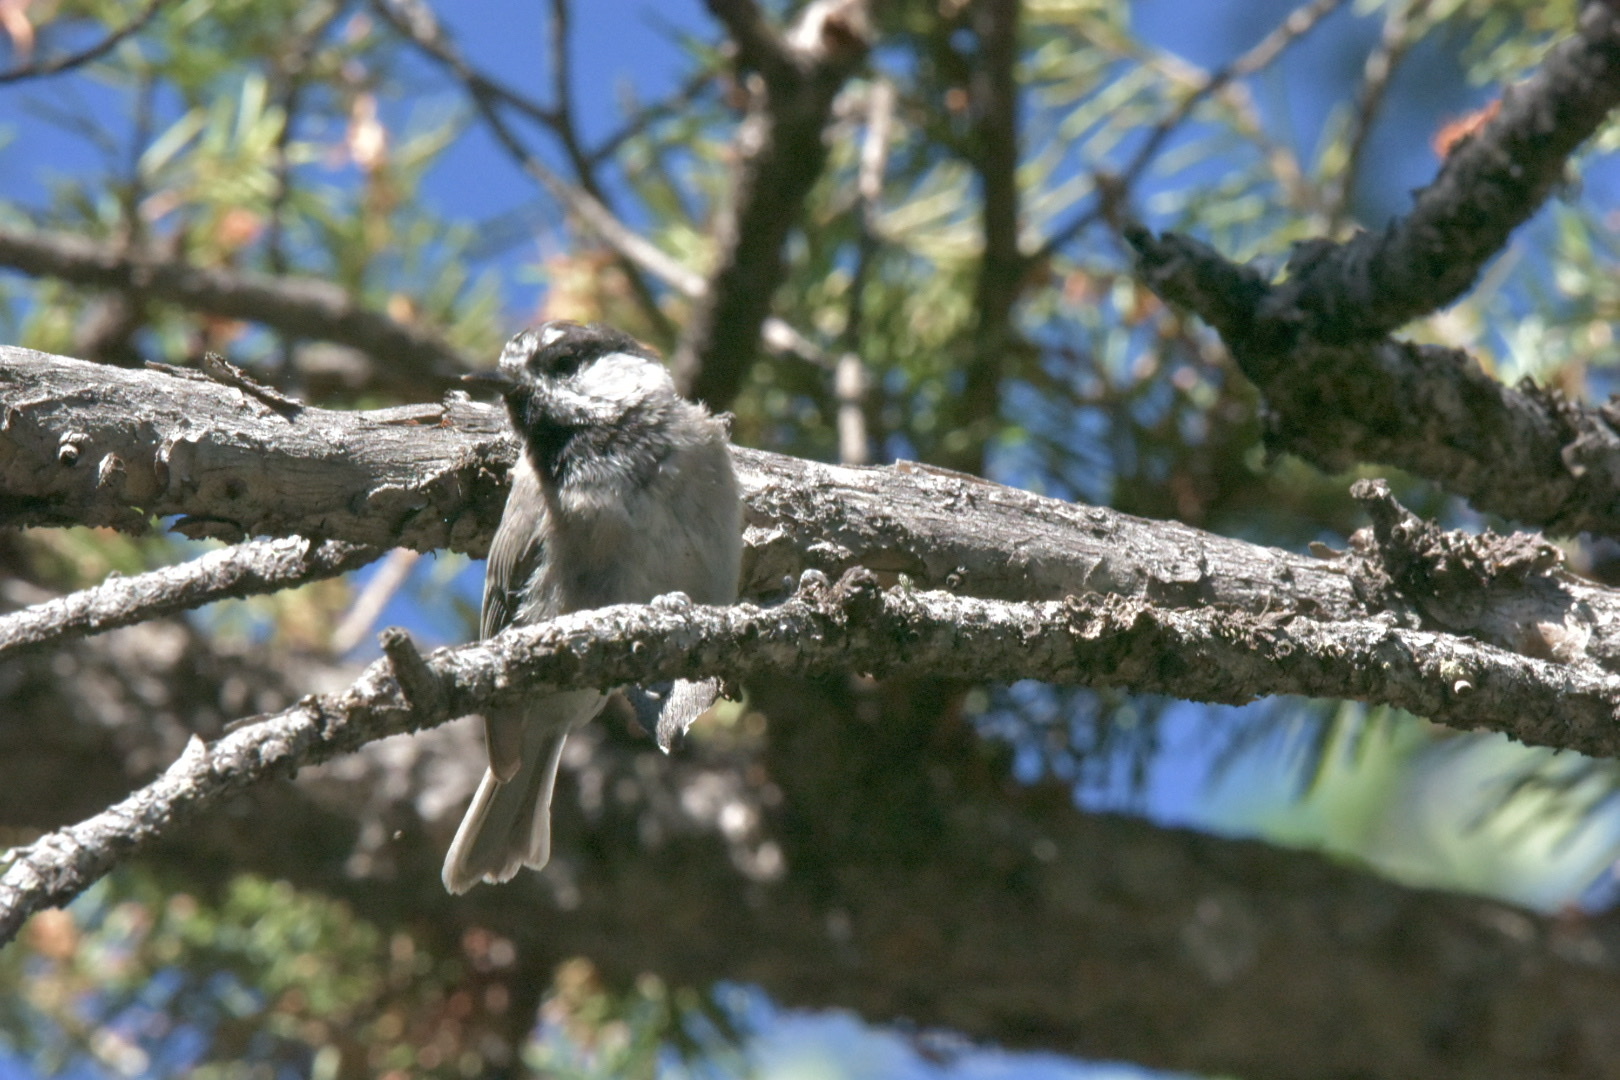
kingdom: Animalia
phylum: Chordata
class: Aves
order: Passeriformes
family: Paridae
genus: Poecile
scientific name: Poecile gambeli
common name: Mountain chickadee
